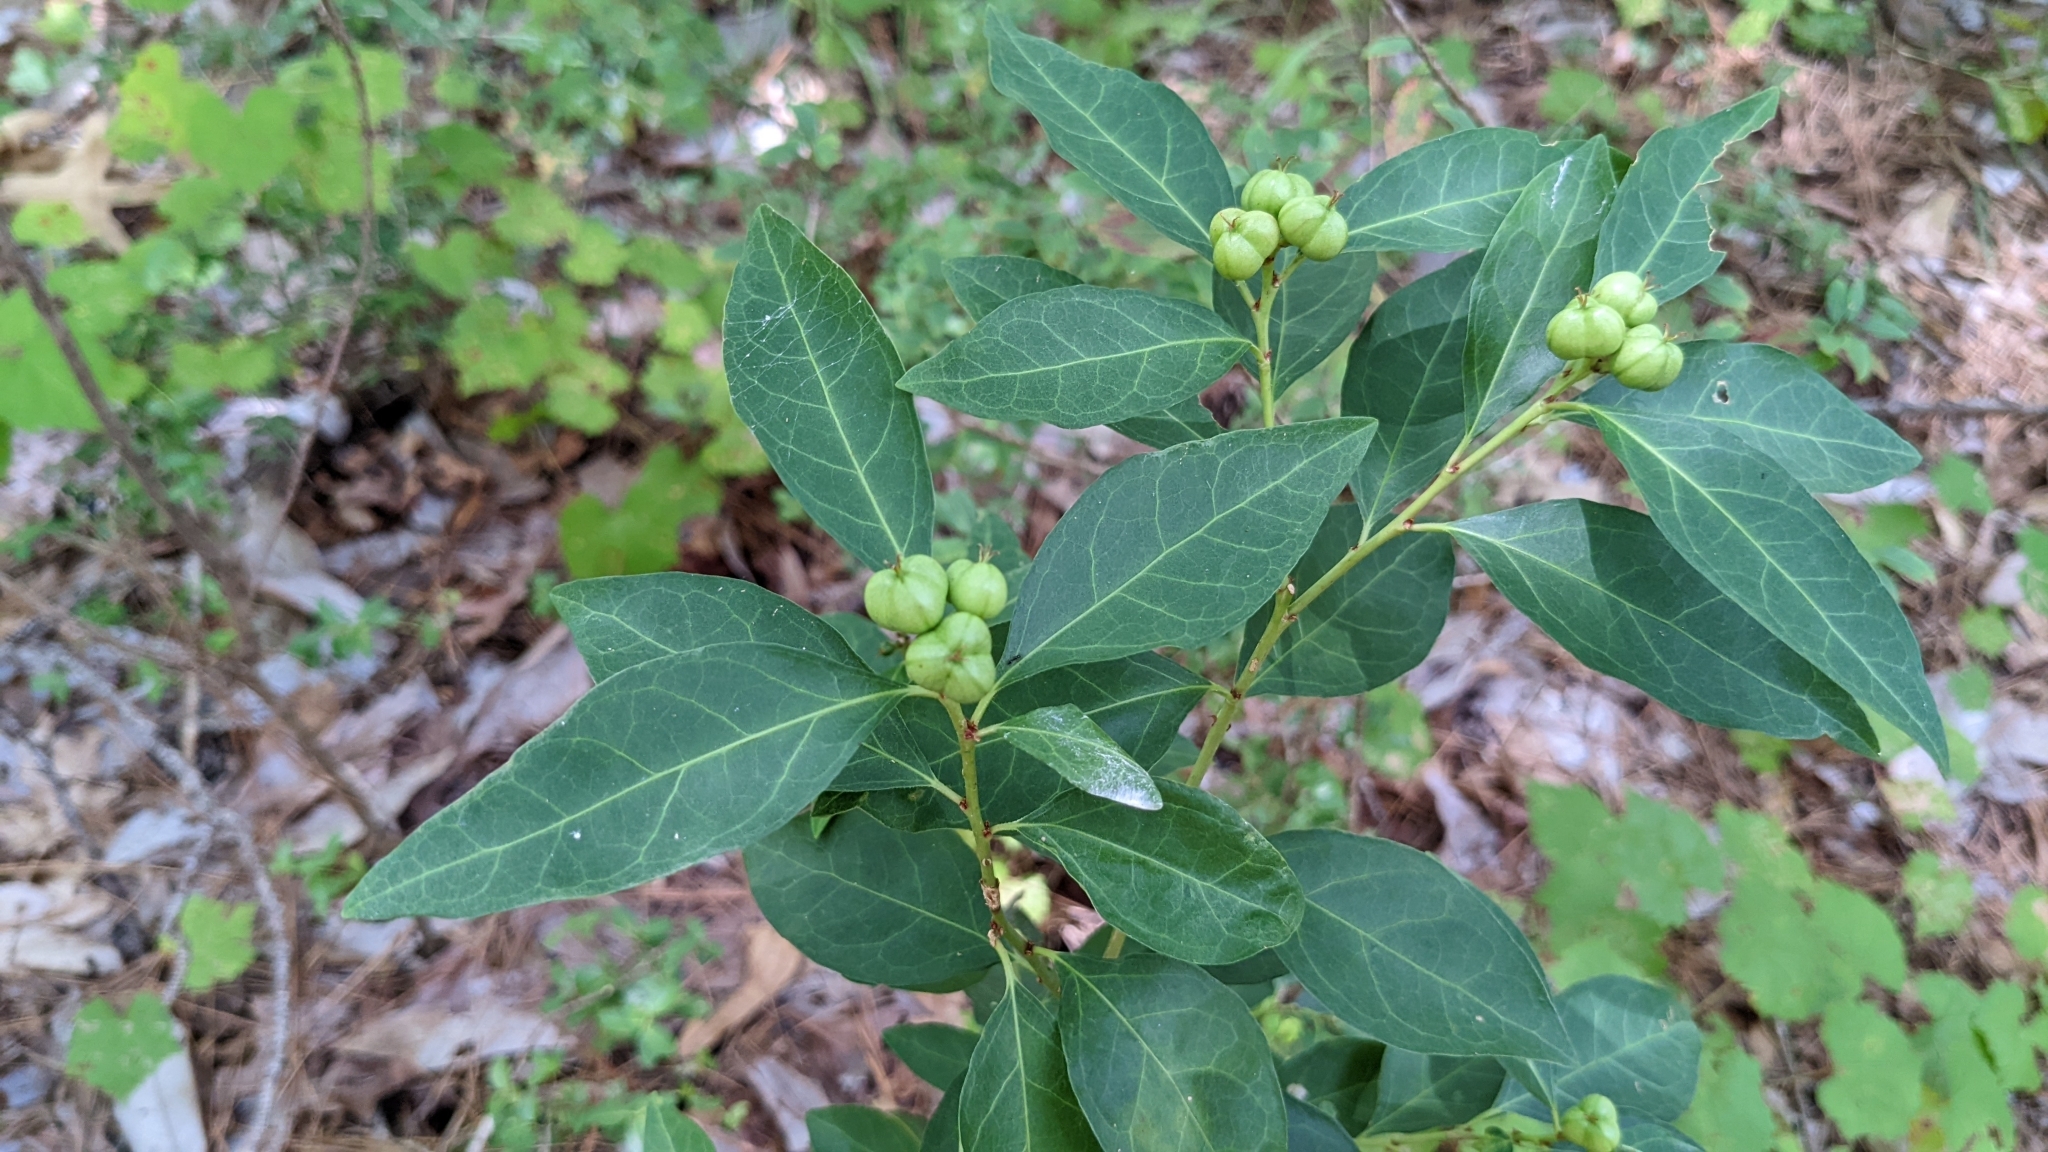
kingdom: Plantae
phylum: Tracheophyta
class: Magnoliopsida
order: Malpighiales
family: Euphorbiaceae
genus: Ditrysinia
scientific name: Ditrysinia fruticosa
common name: Gulf sebastian-bush
